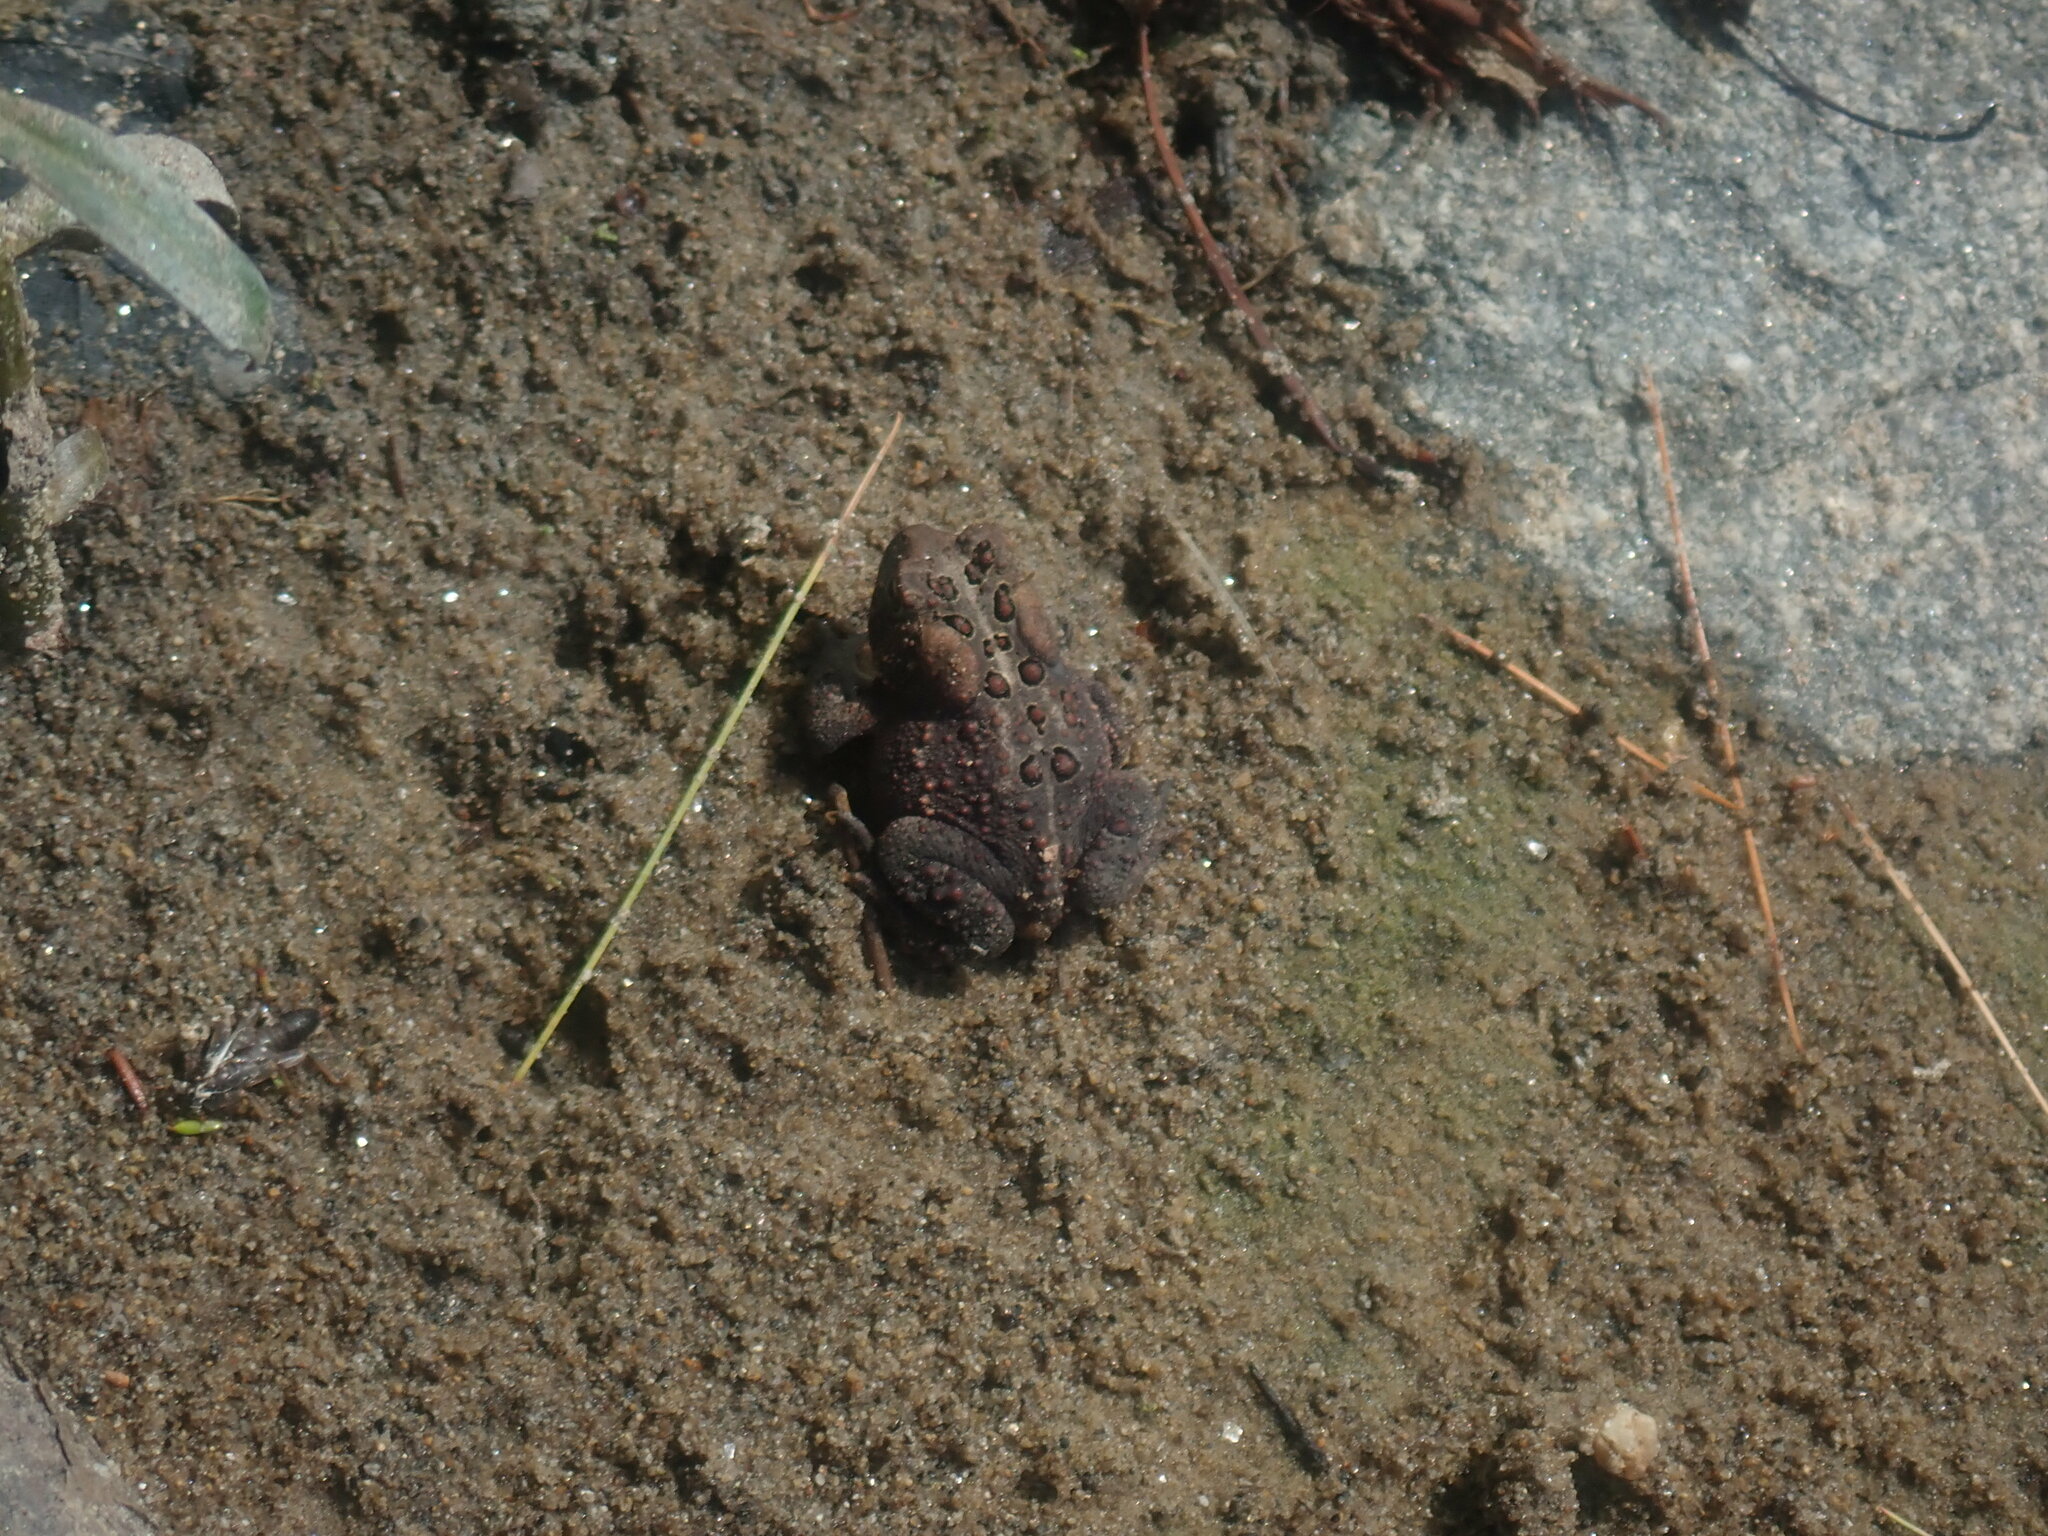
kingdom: Animalia
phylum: Chordata
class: Amphibia
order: Anura
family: Bufonidae
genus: Anaxyrus
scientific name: Anaxyrus americanus
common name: American toad
